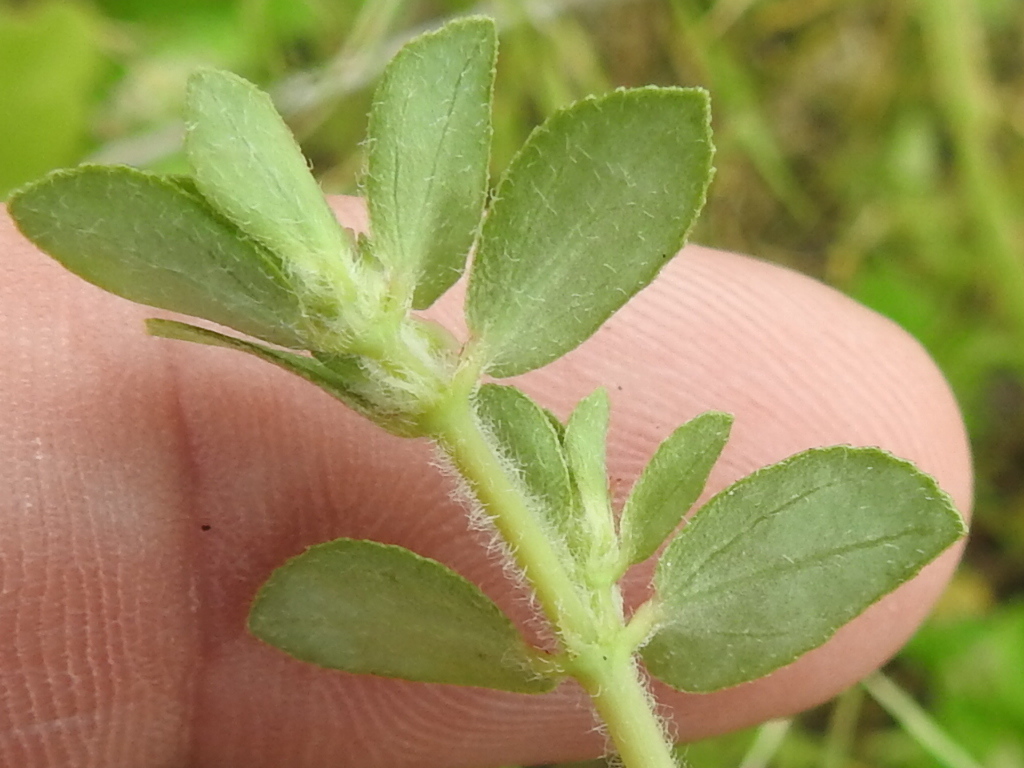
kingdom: Plantae
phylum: Tracheophyta
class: Magnoliopsida
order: Malpighiales
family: Euphorbiaceae
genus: Euphorbia
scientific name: Euphorbia indivisa
